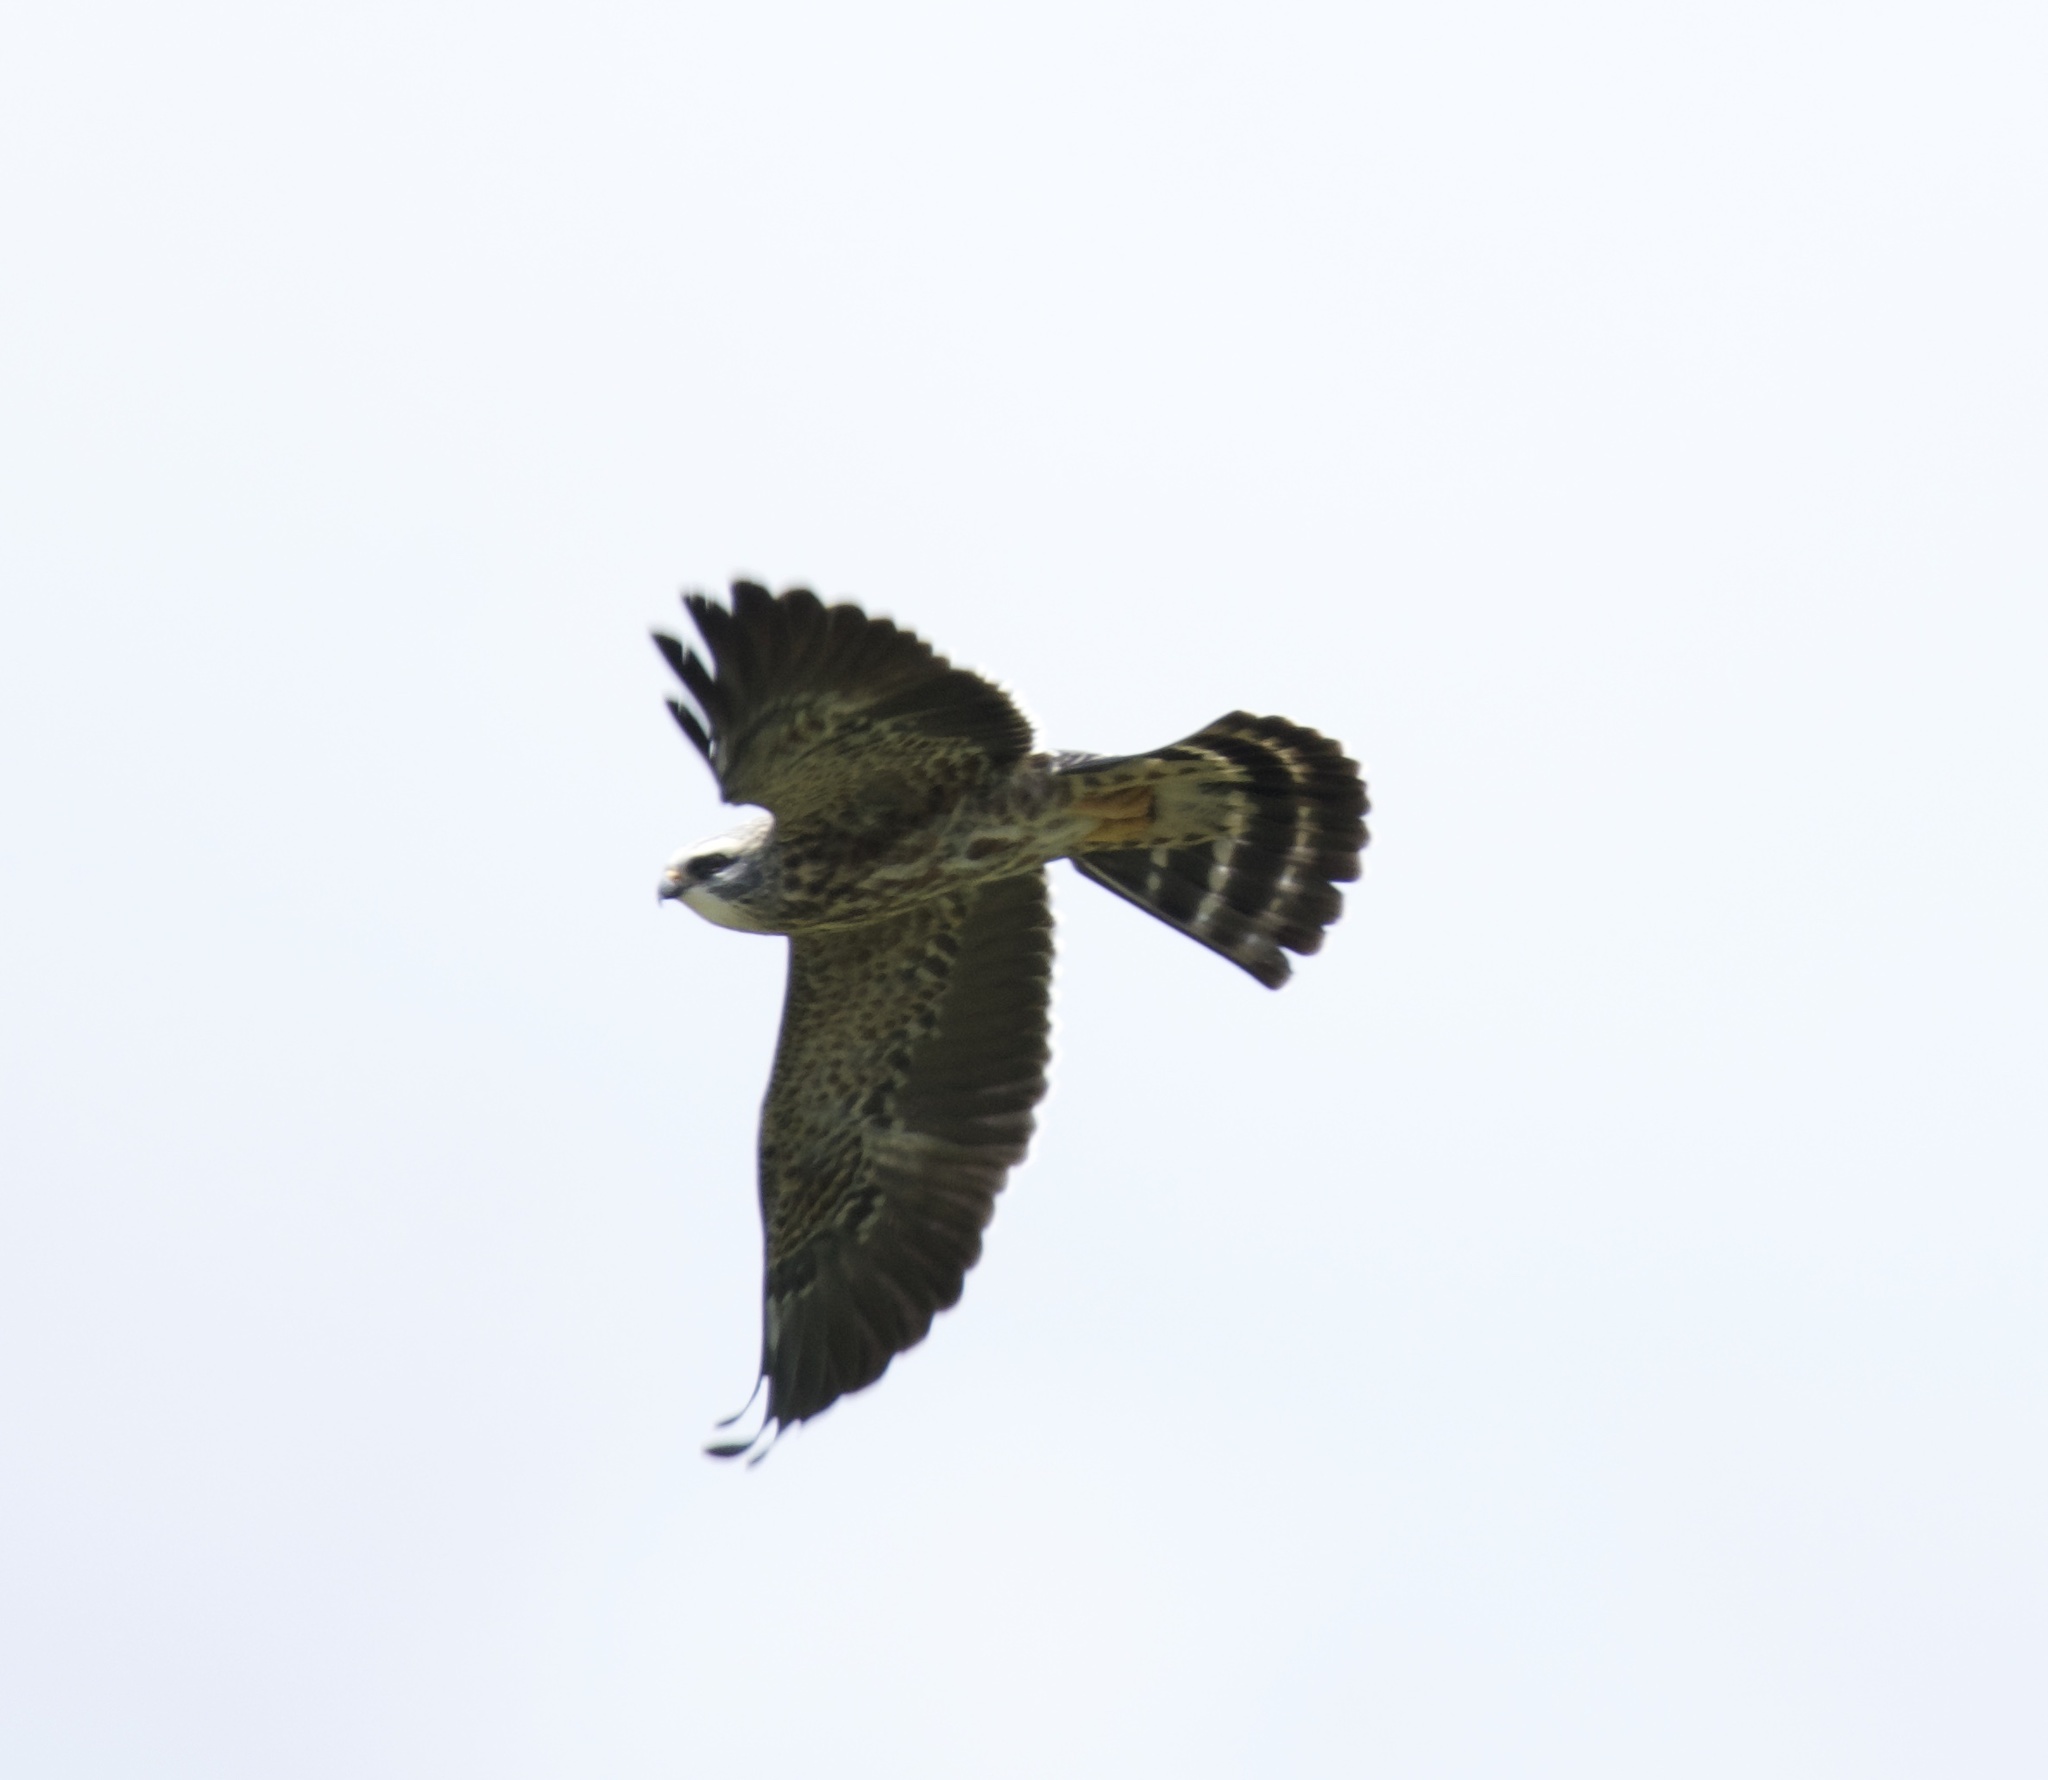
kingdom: Animalia
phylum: Chordata
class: Aves
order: Accipitriformes
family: Accipitridae
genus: Ictinia
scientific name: Ictinia mississippiensis
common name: Mississippi kite
